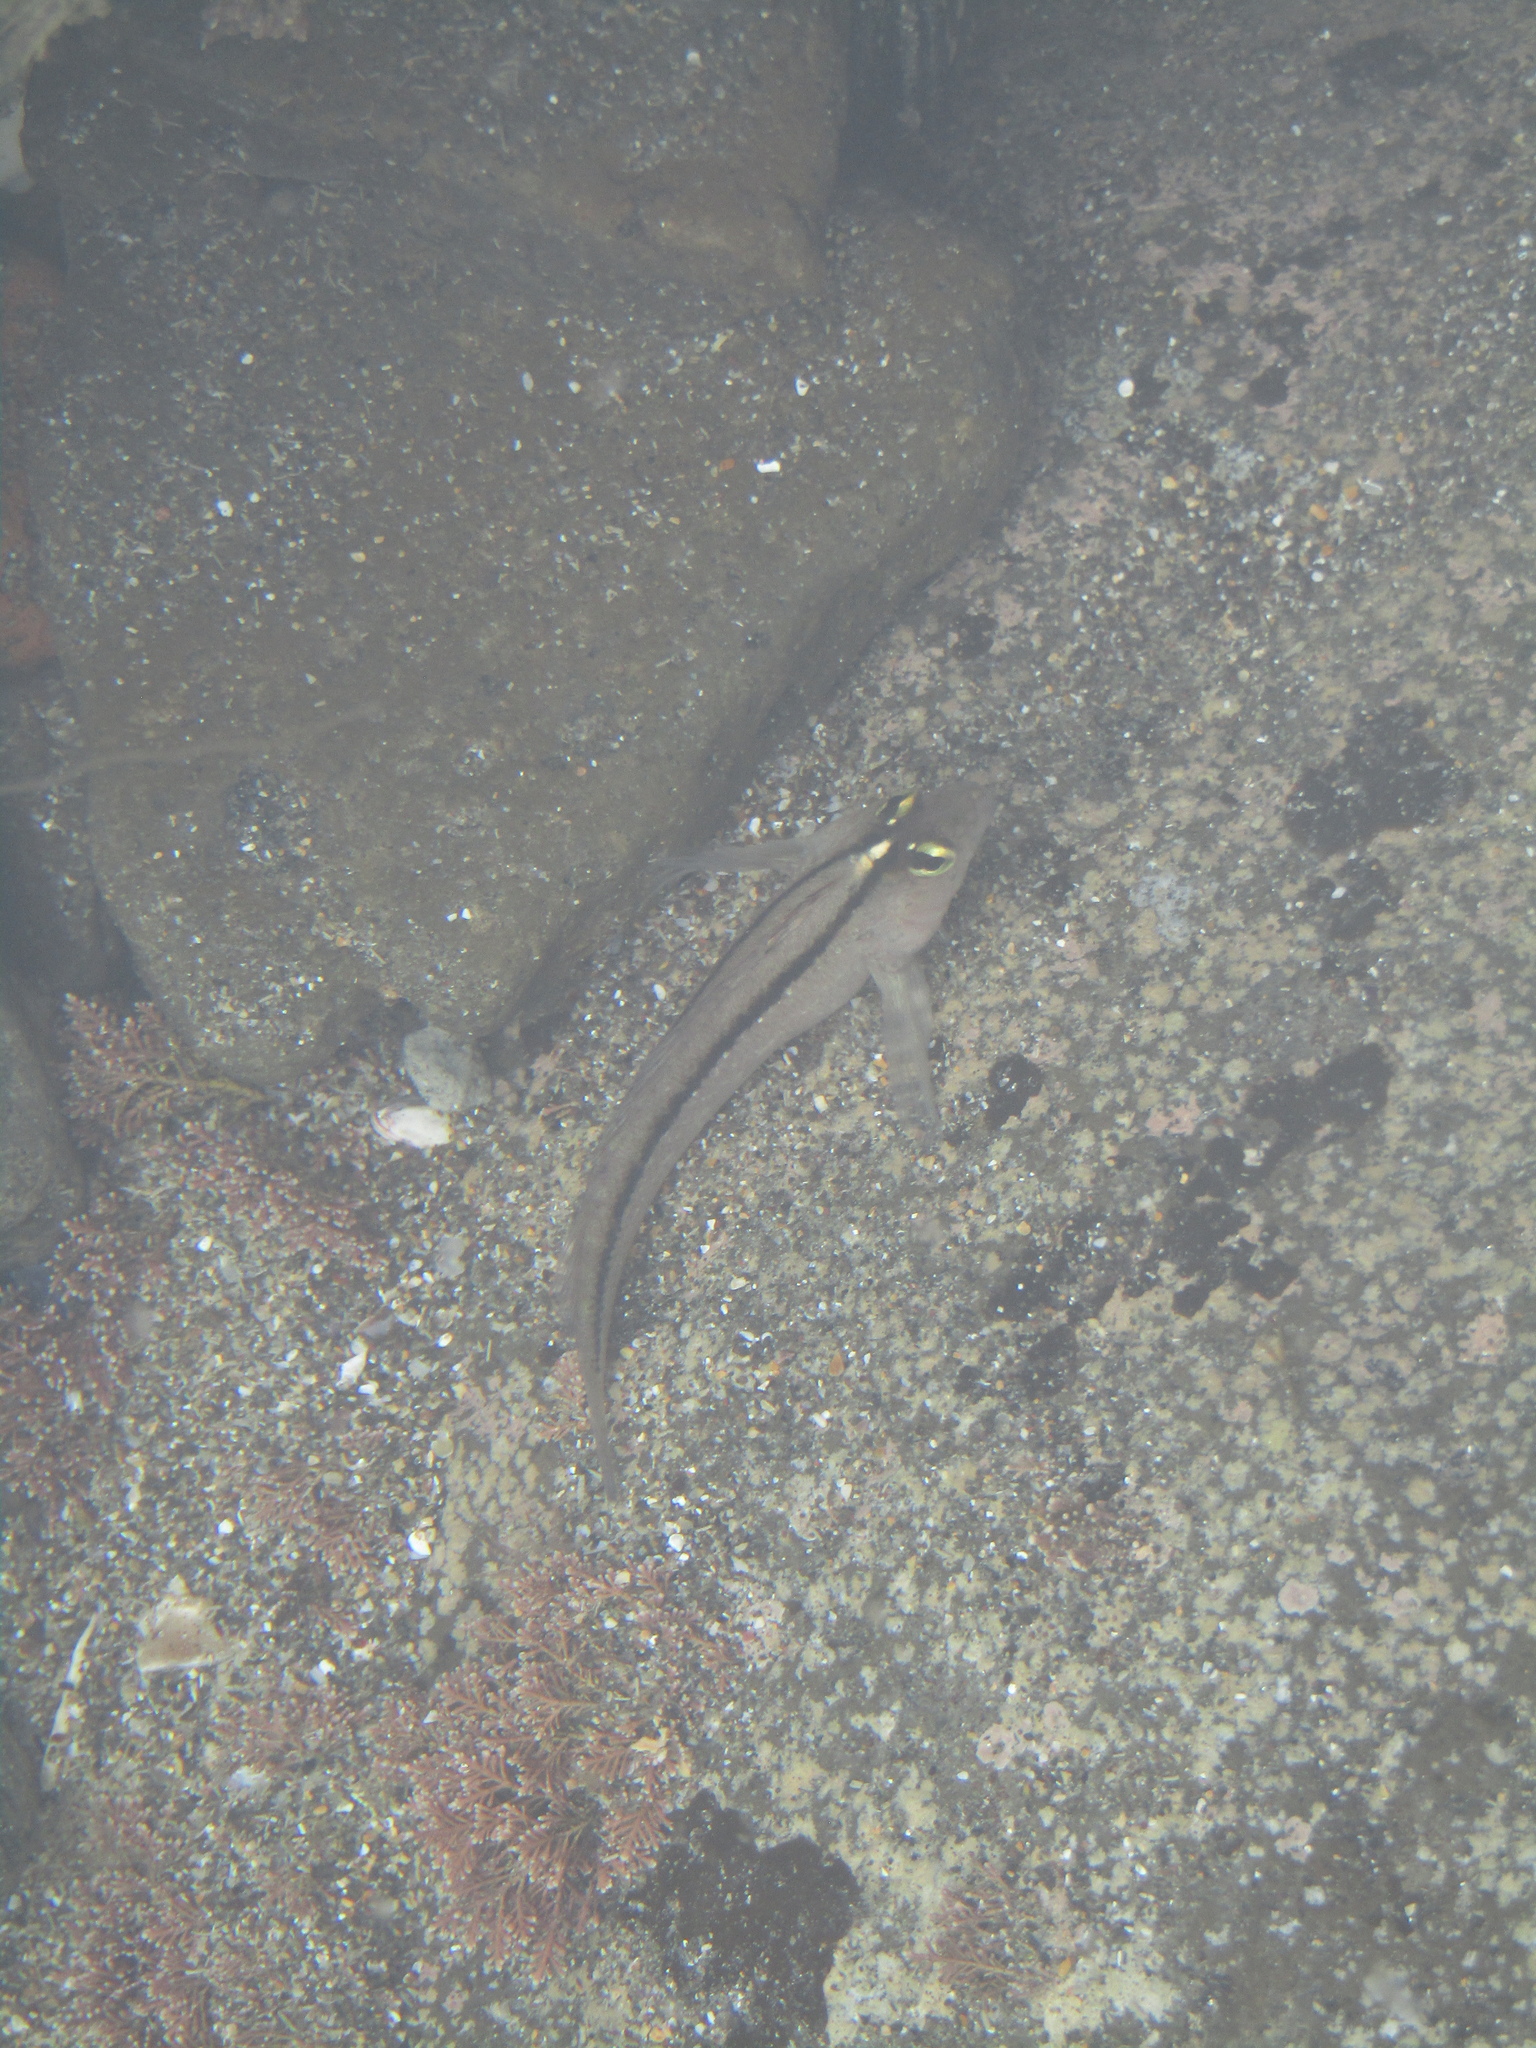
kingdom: Animalia
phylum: Chordata
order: Perciformes
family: Tripterygiidae
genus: Forsterygion
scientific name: Forsterygion lapillum
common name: Common triplefin
